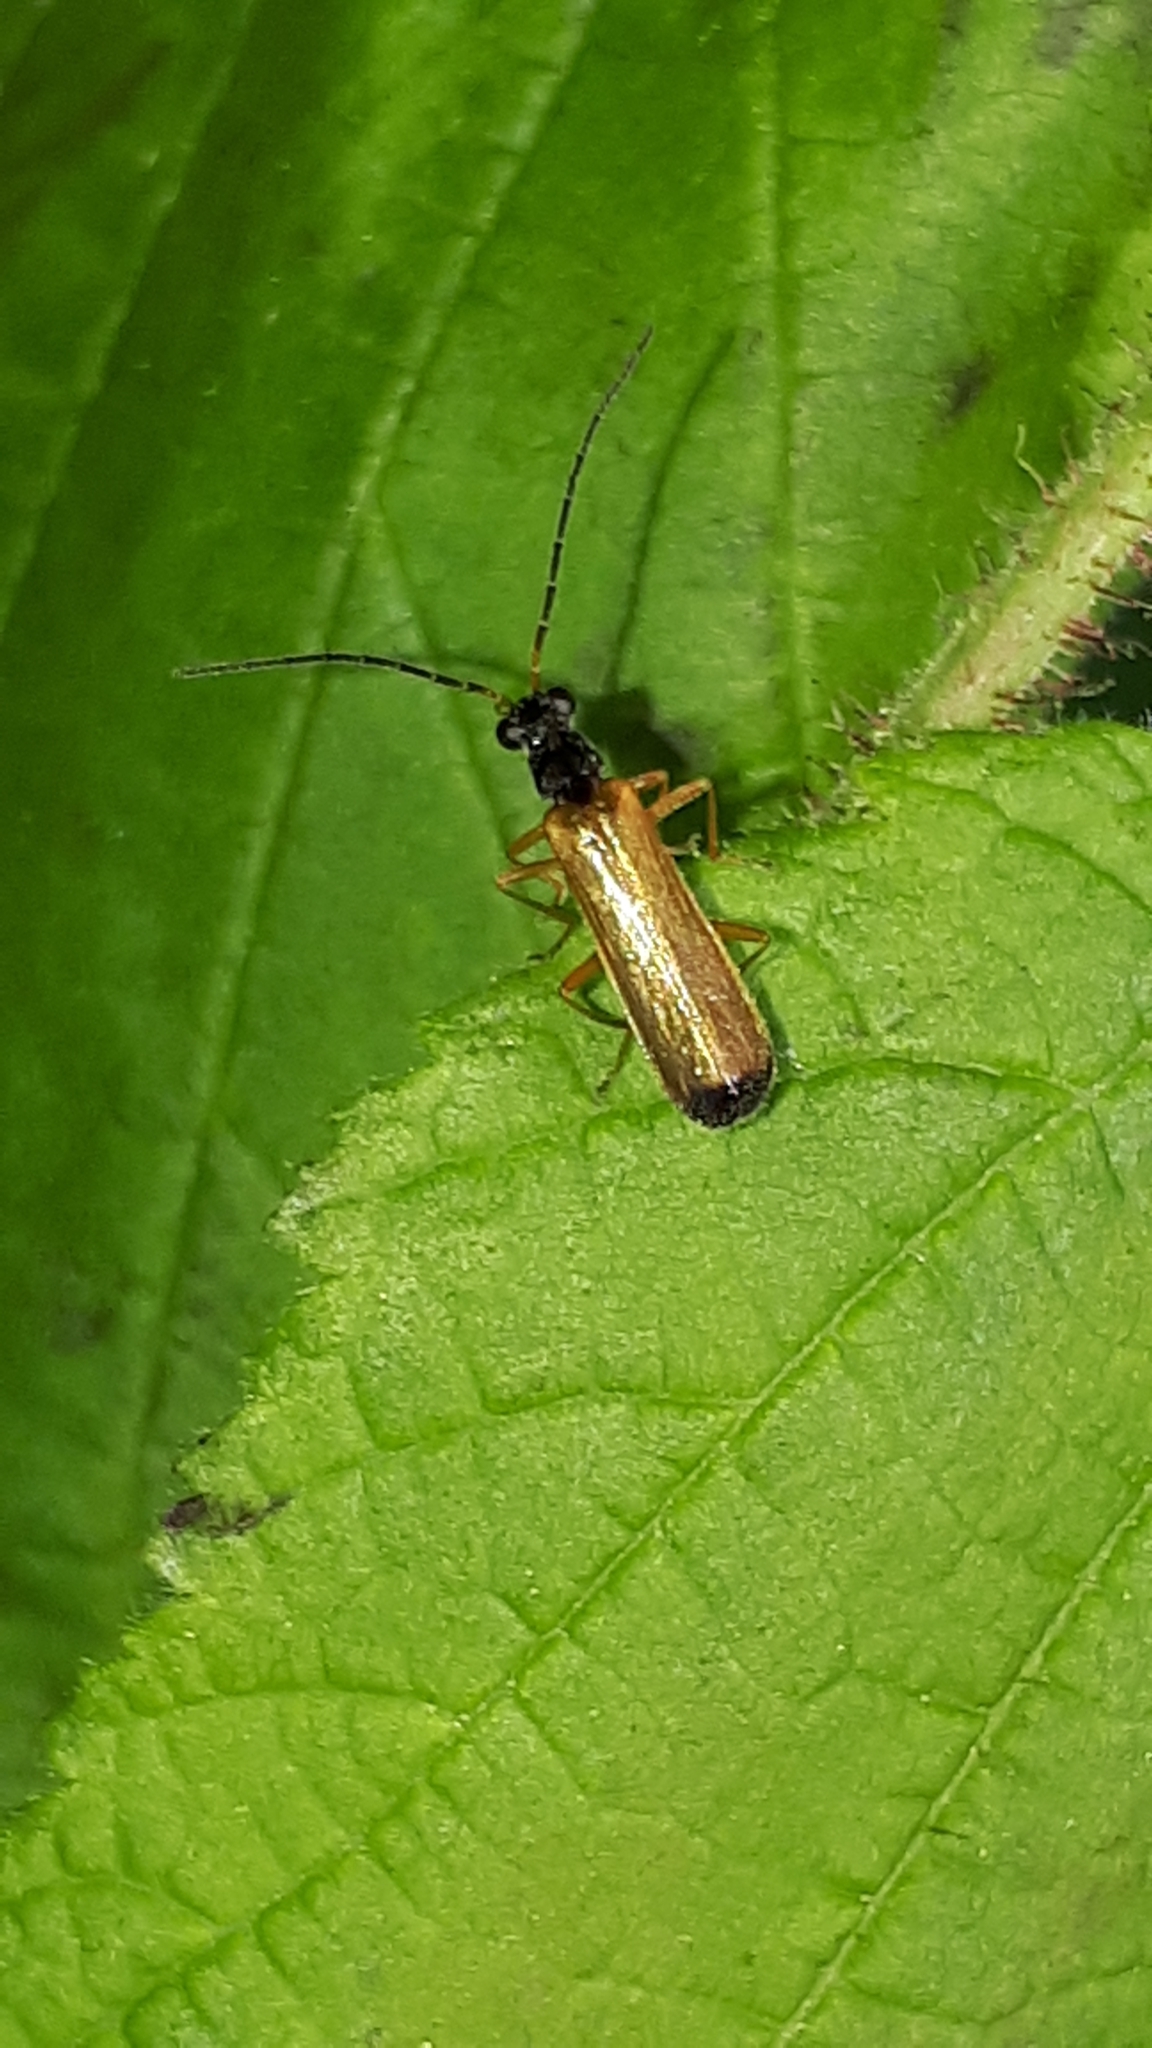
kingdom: Animalia
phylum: Arthropoda
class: Insecta
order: Coleoptera
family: Cantharidae
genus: Rhagonycha
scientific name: Rhagonycha lignosa
